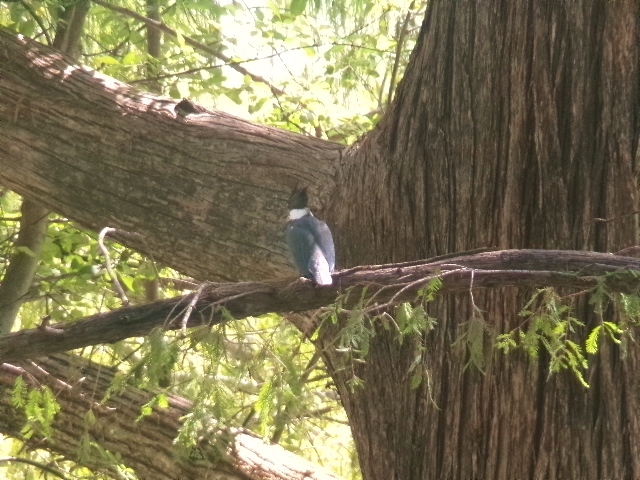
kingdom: Animalia
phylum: Chordata
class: Aves
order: Coraciiformes
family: Alcedinidae
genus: Megaceryle
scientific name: Megaceryle alcyon
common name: Belted kingfisher
